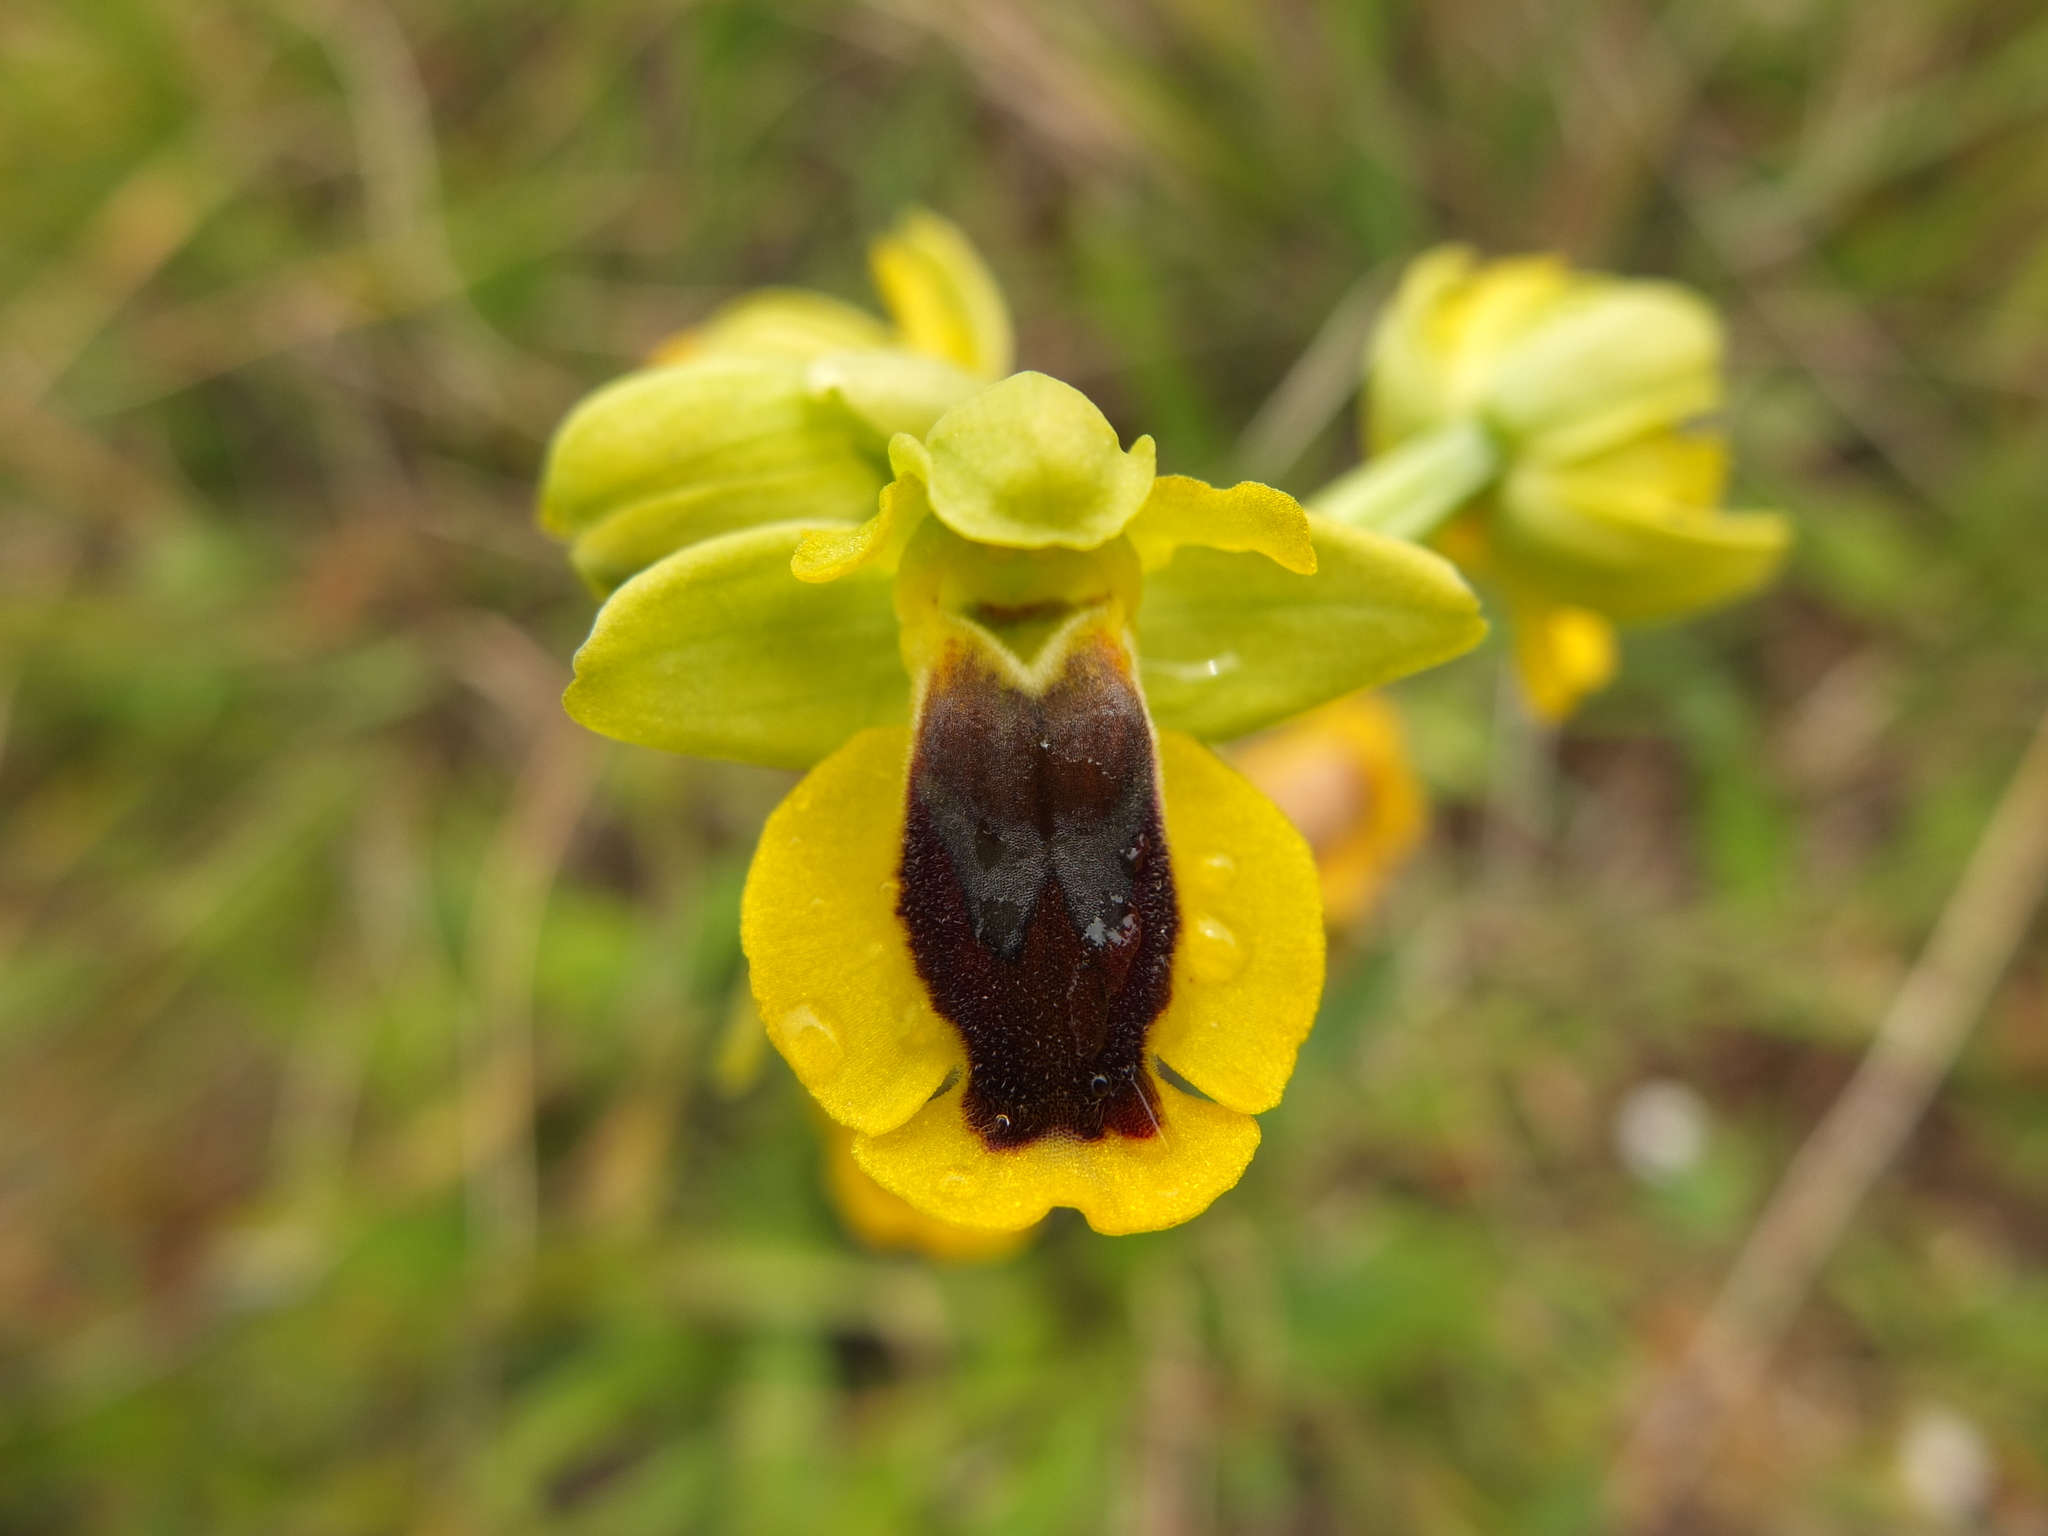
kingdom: Plantae
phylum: Tracheophyta
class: Liliopsida
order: Asparagales
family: Orchidaceae
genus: Ophrys
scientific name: Ophrys lutea
